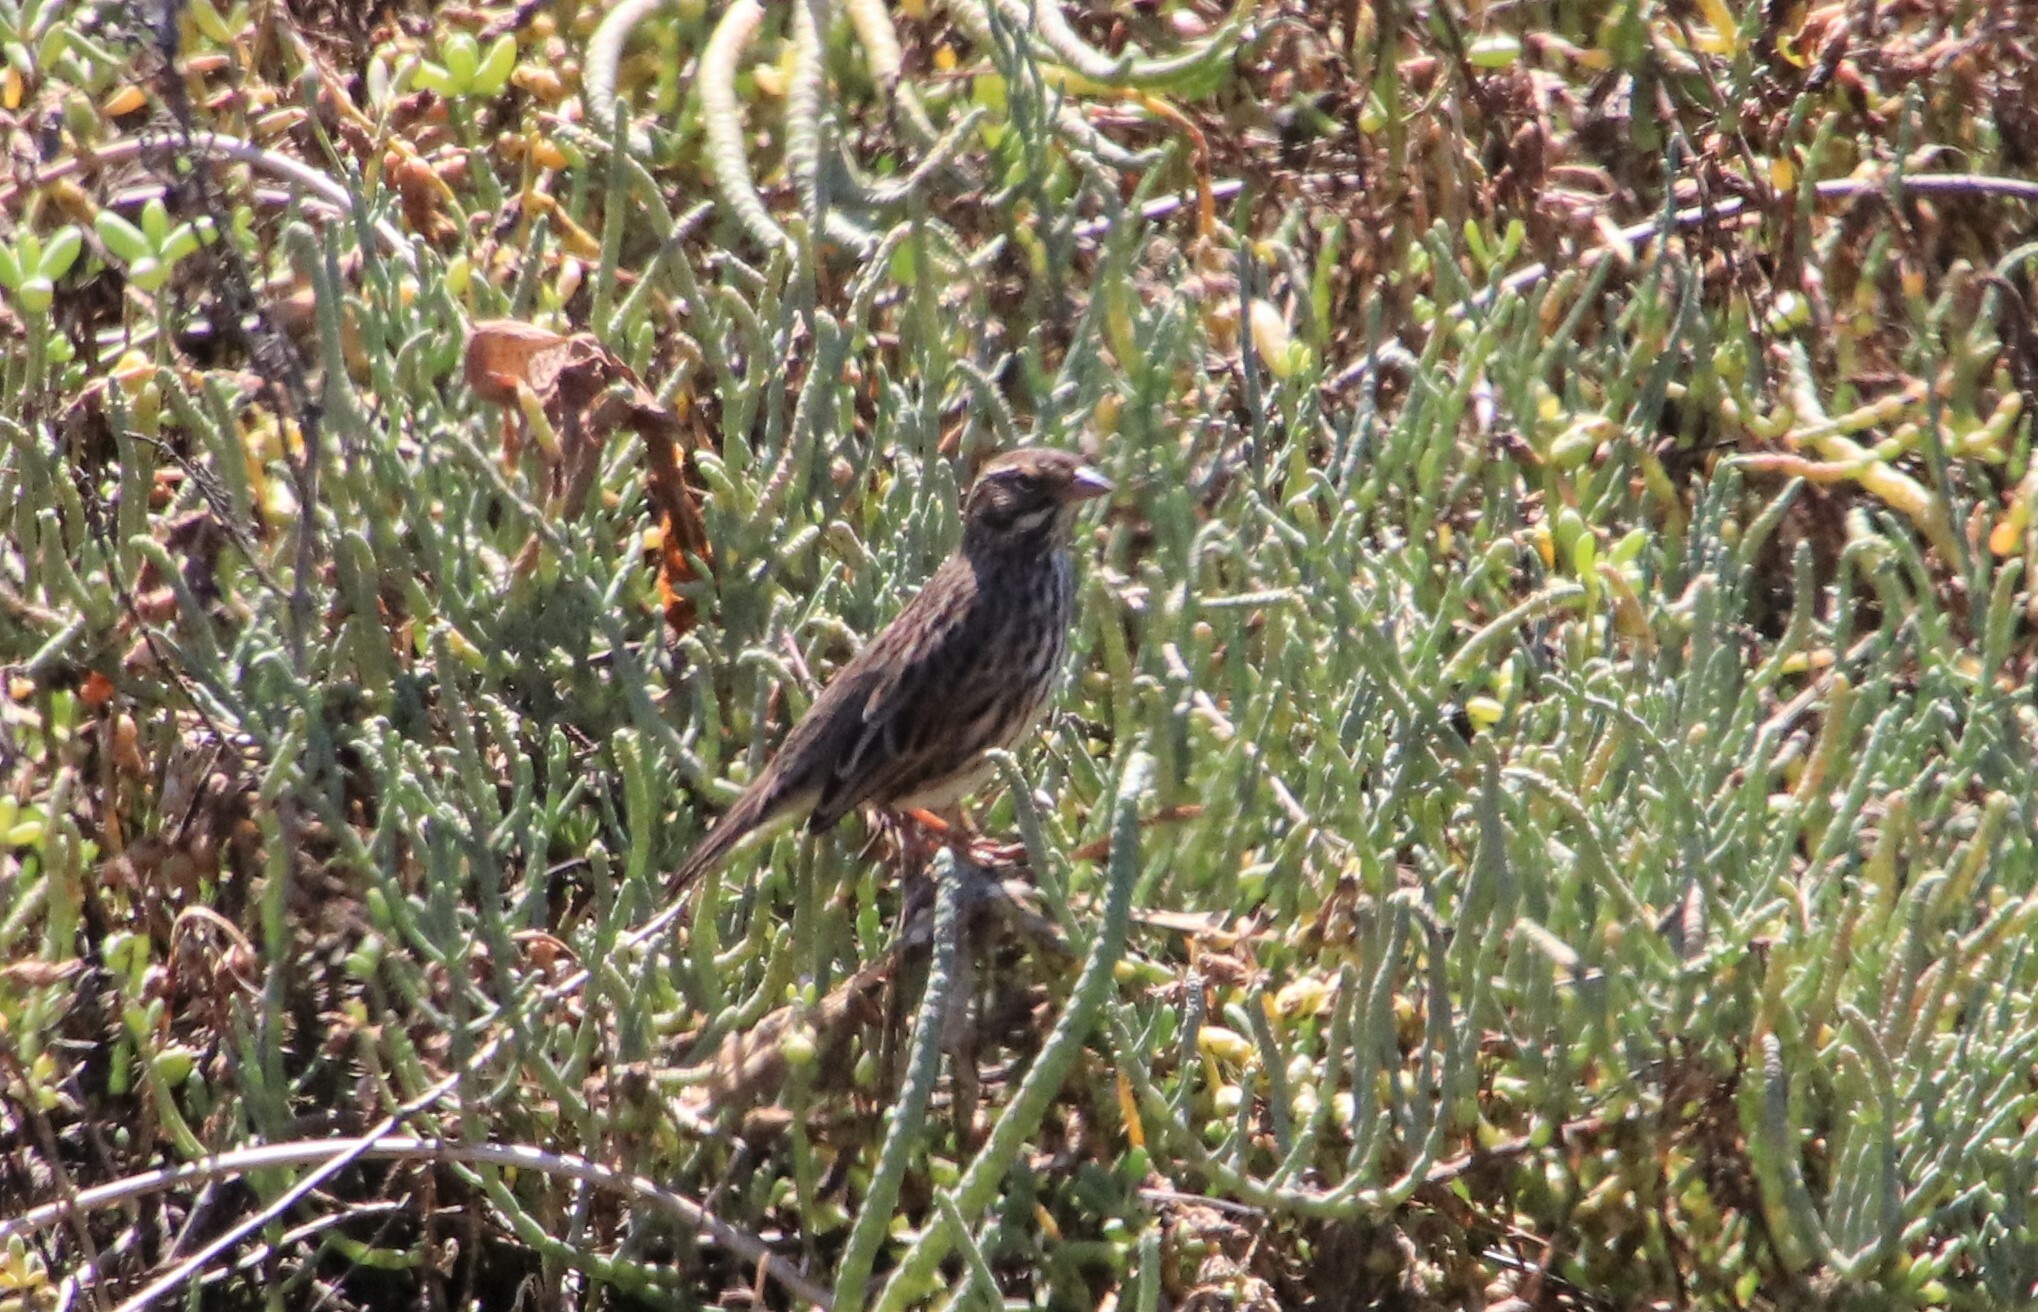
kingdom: Animalia
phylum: Chordata
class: Aves
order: Passeriformes
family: Passerellidae
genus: Passerculus
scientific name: Passerculus sandwichensis
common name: Savannah sparrow
